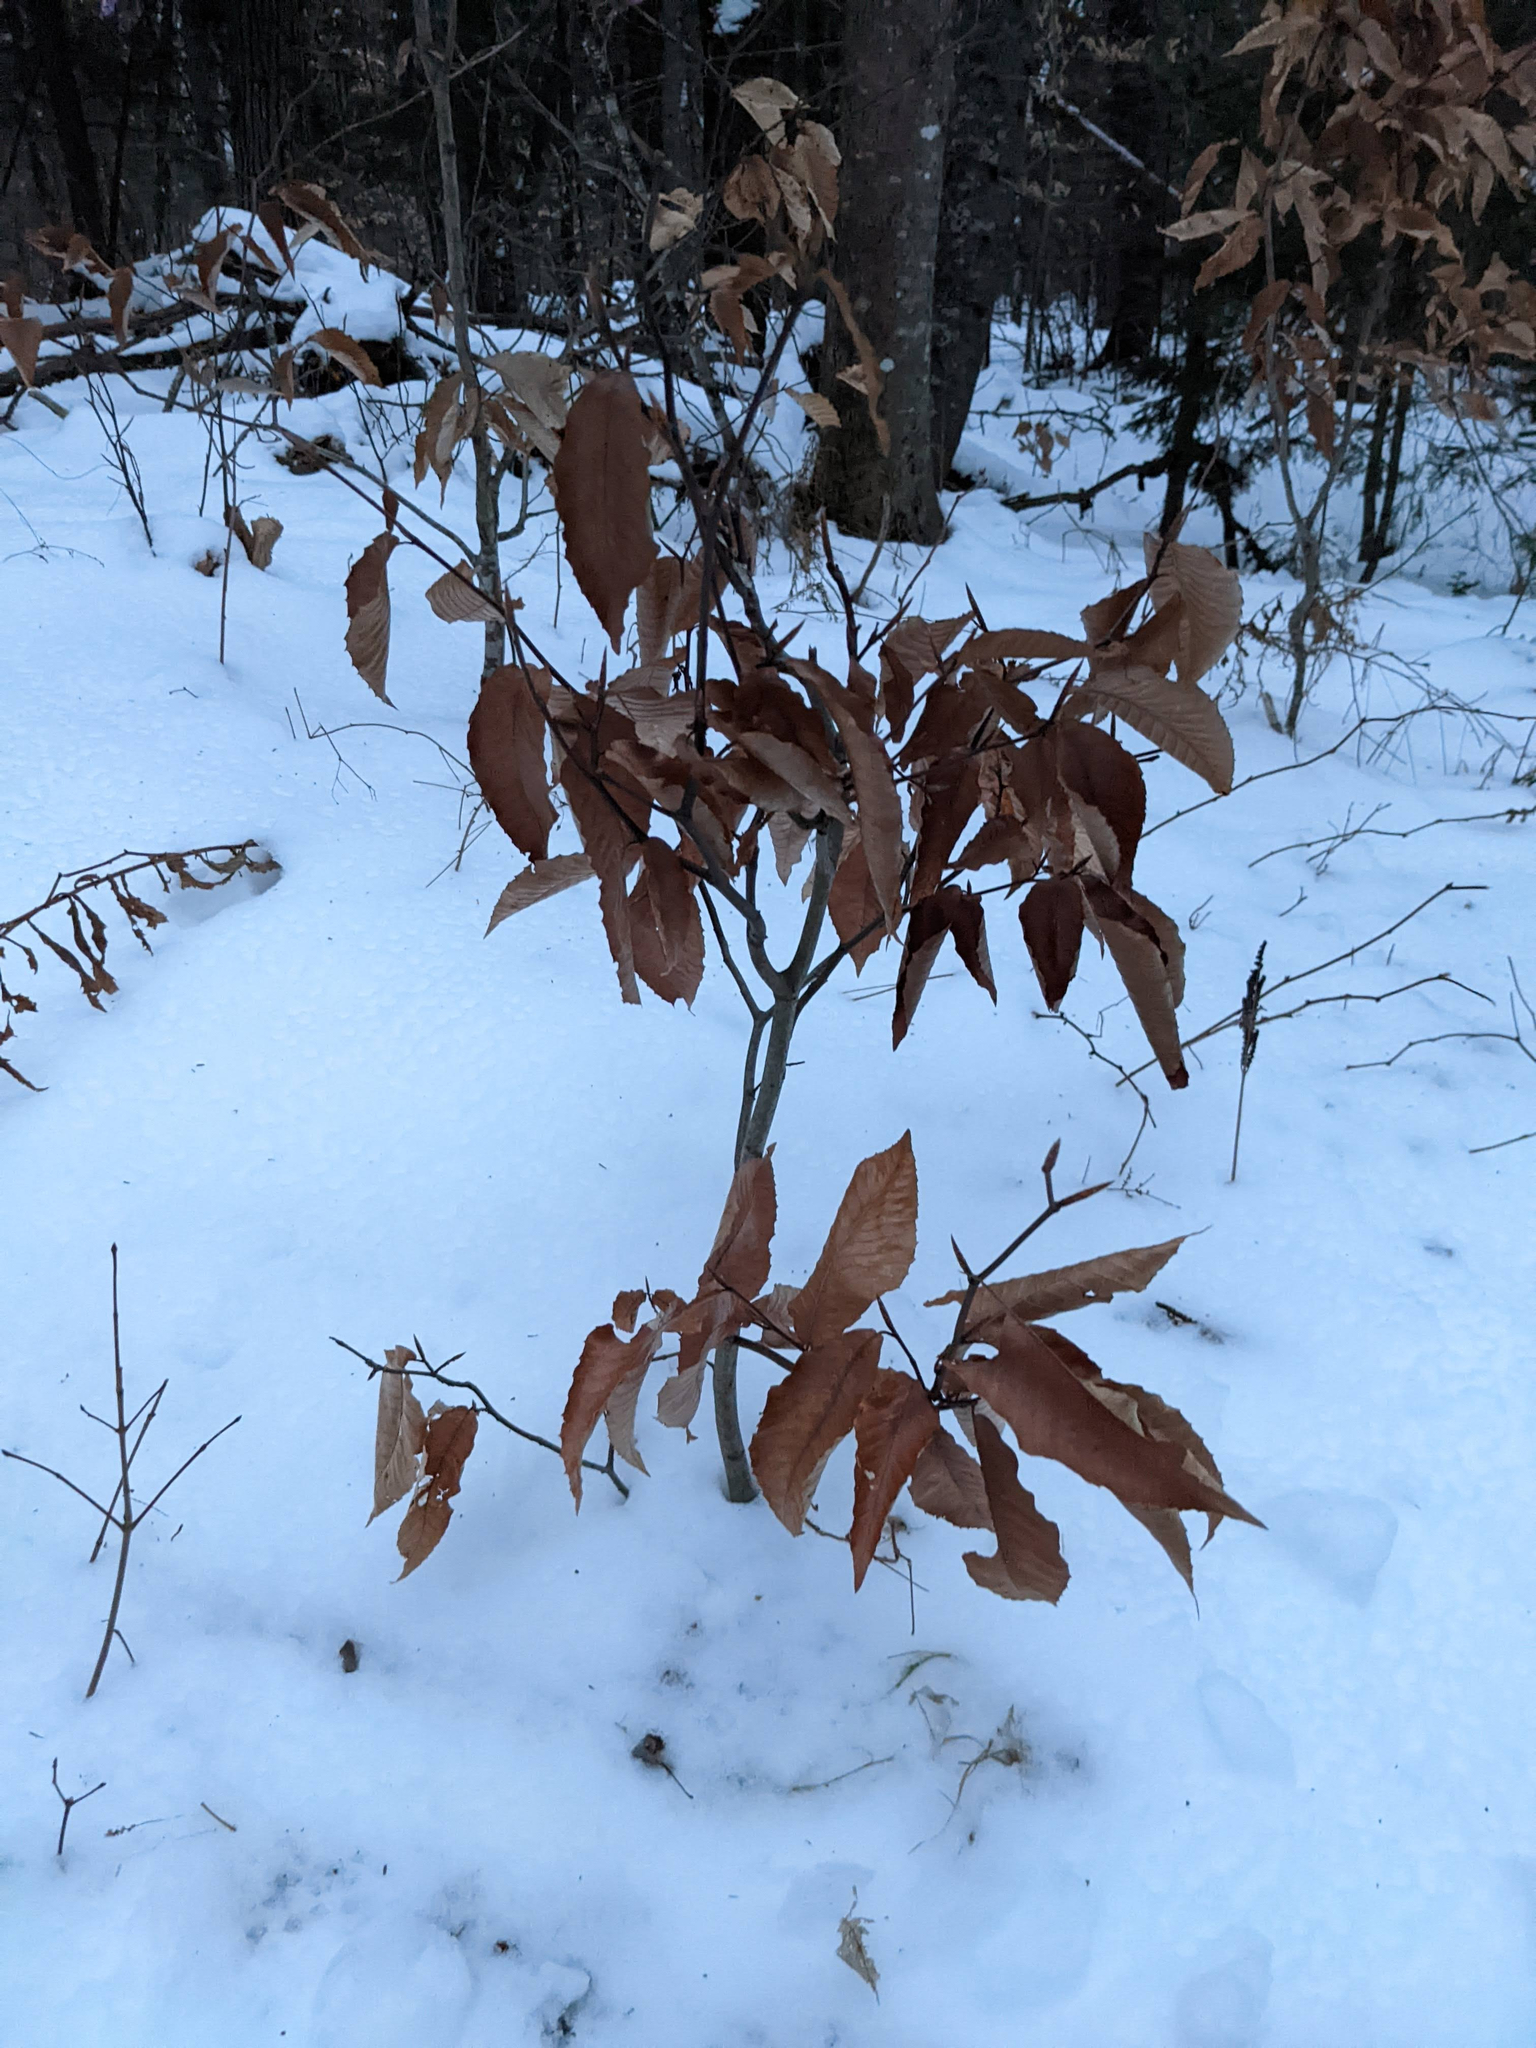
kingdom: Plantae
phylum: Tracheophyta
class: Magnoliopsida
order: Fagales
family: Fagaceae
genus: Fagus
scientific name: Fagus grandifolia
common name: American beech
